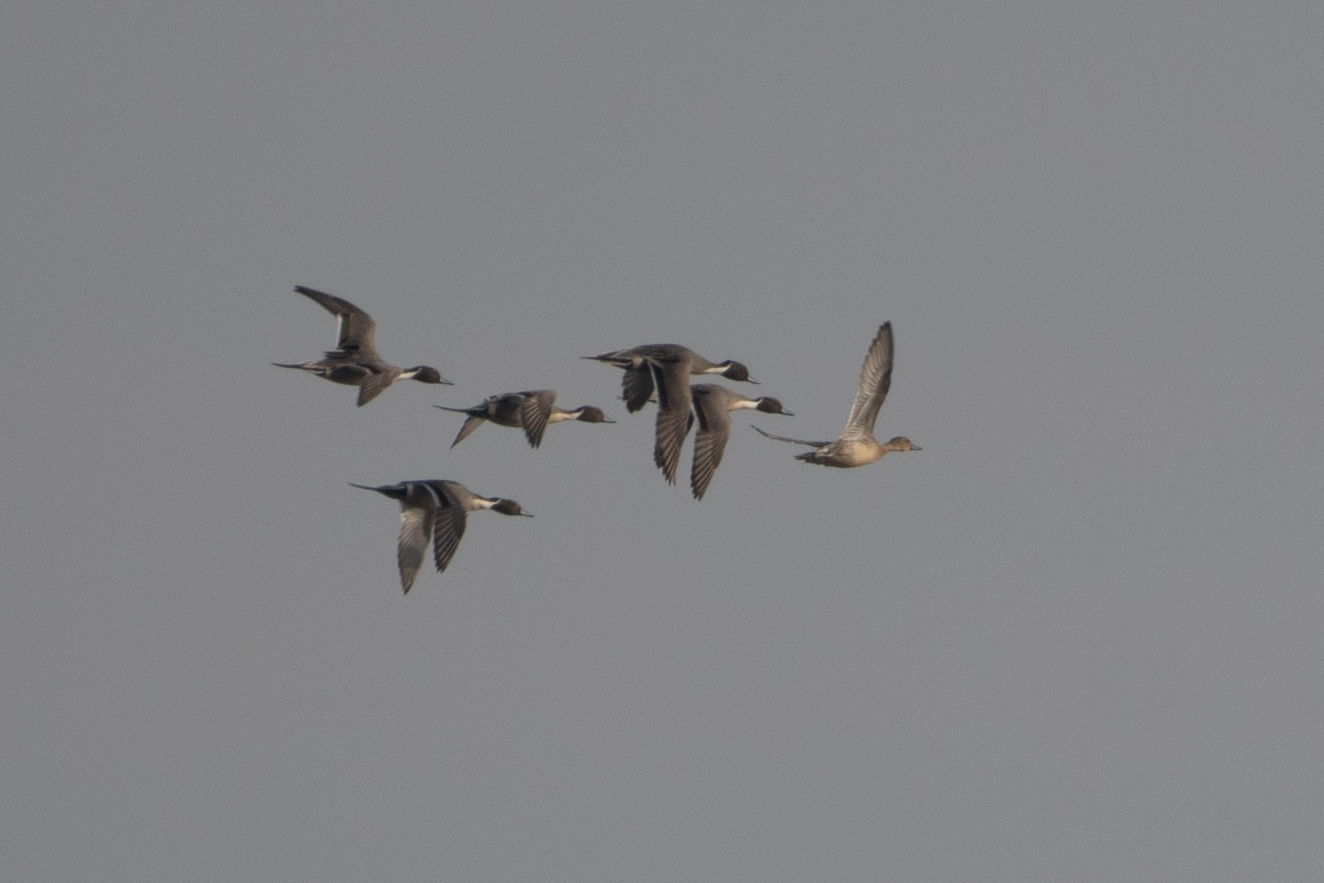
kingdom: Animalia
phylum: Chordata
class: Aves
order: Anseriformes
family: Anatidae
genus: Anas
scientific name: Anas acuta
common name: Northern pintail
